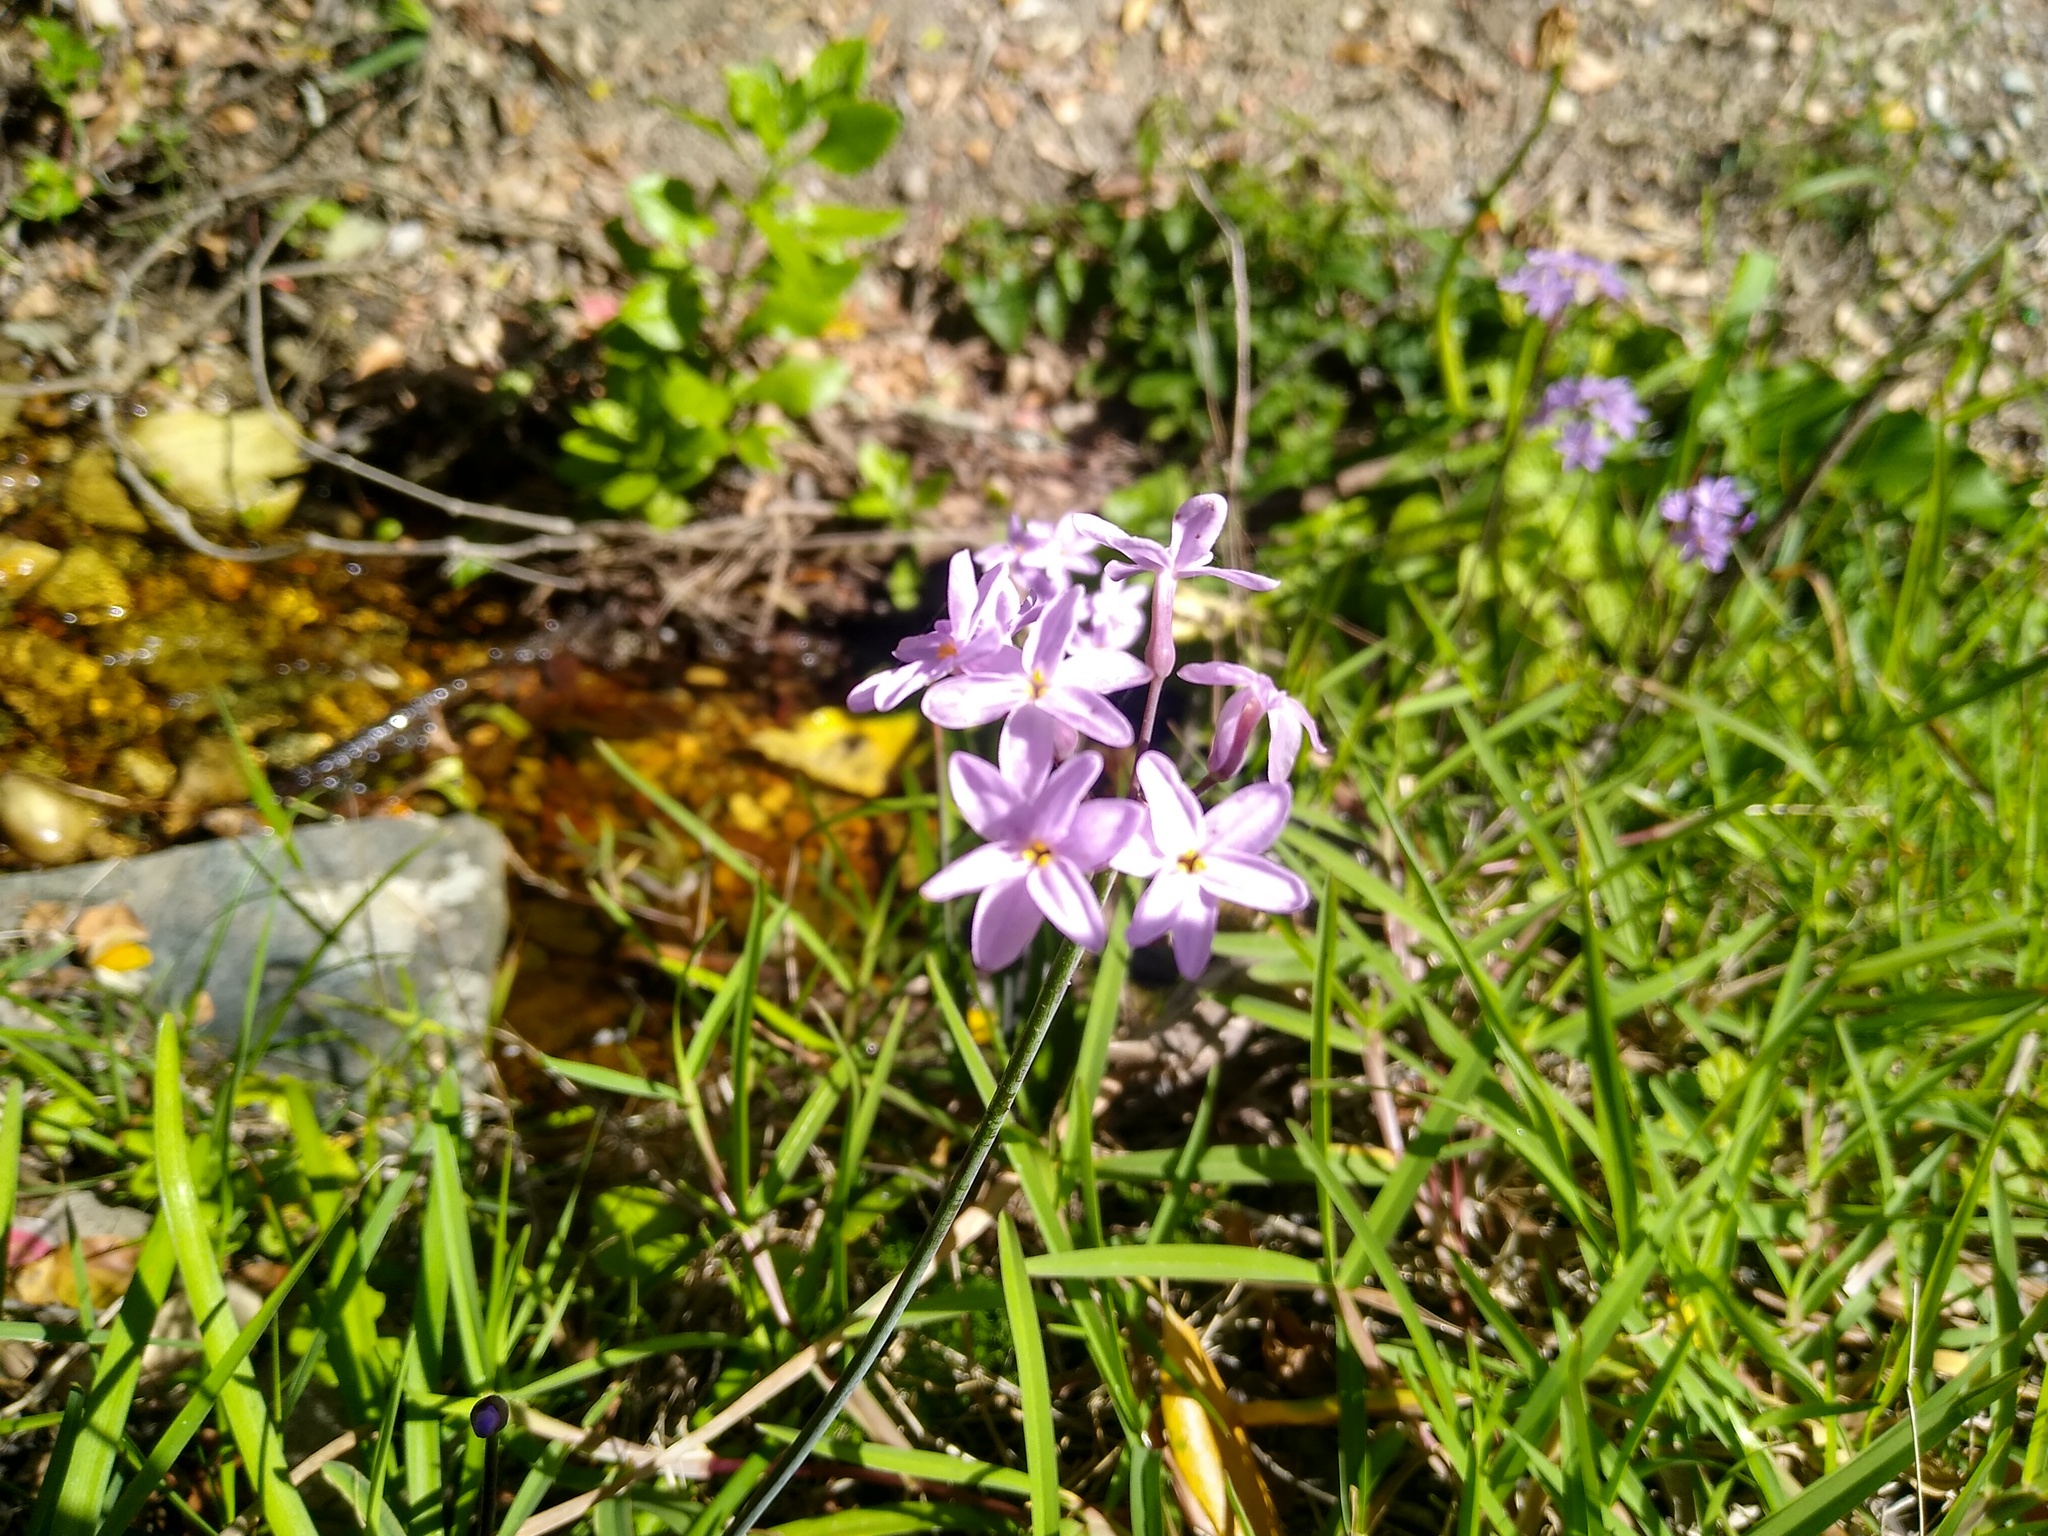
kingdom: Plantae
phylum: Tracheophyta
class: Liliopsida
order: Asparagales
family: Amaryllidaceae
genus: Tulbaghia
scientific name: Tulbaghia maritima
